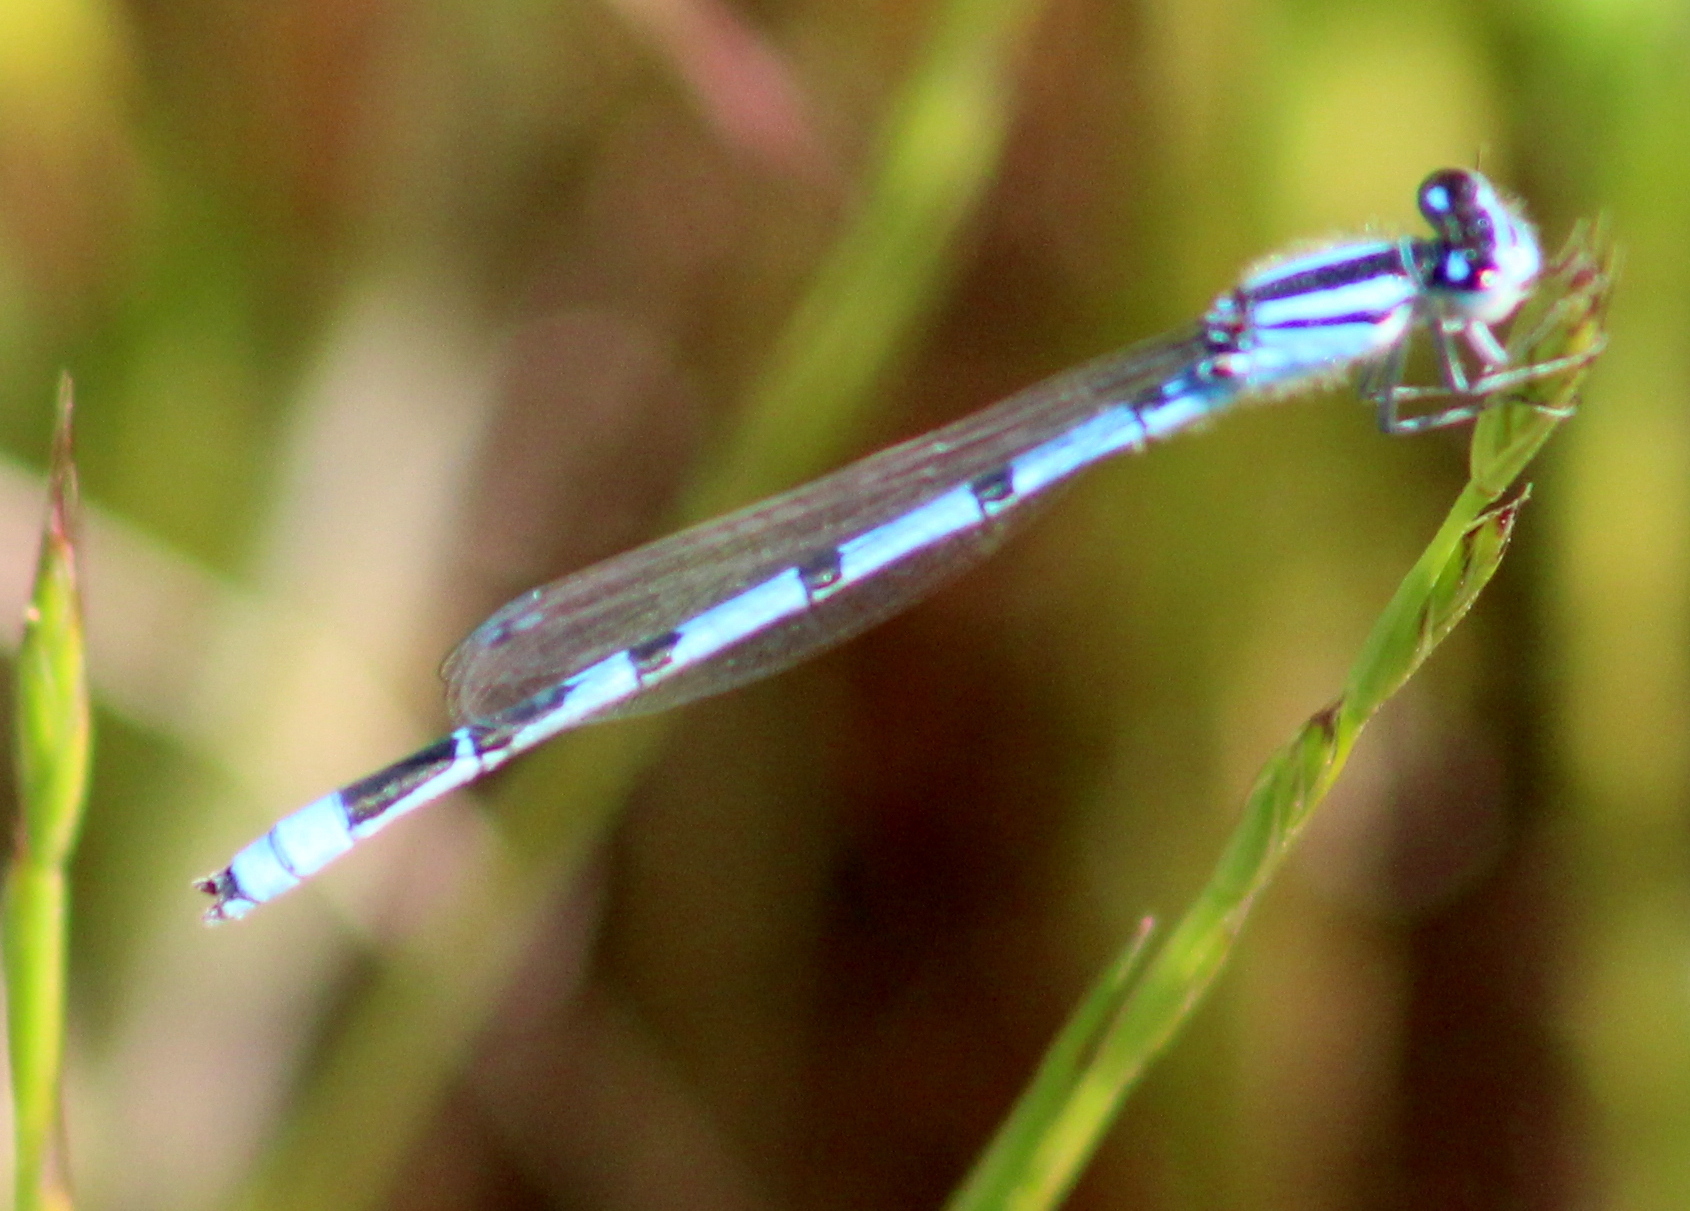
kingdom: Animalia
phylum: Arthropoda
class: Insecta
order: Odonata
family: Coenagrionidae
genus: Enallagma
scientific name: Enallagma civile
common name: Damselfly
